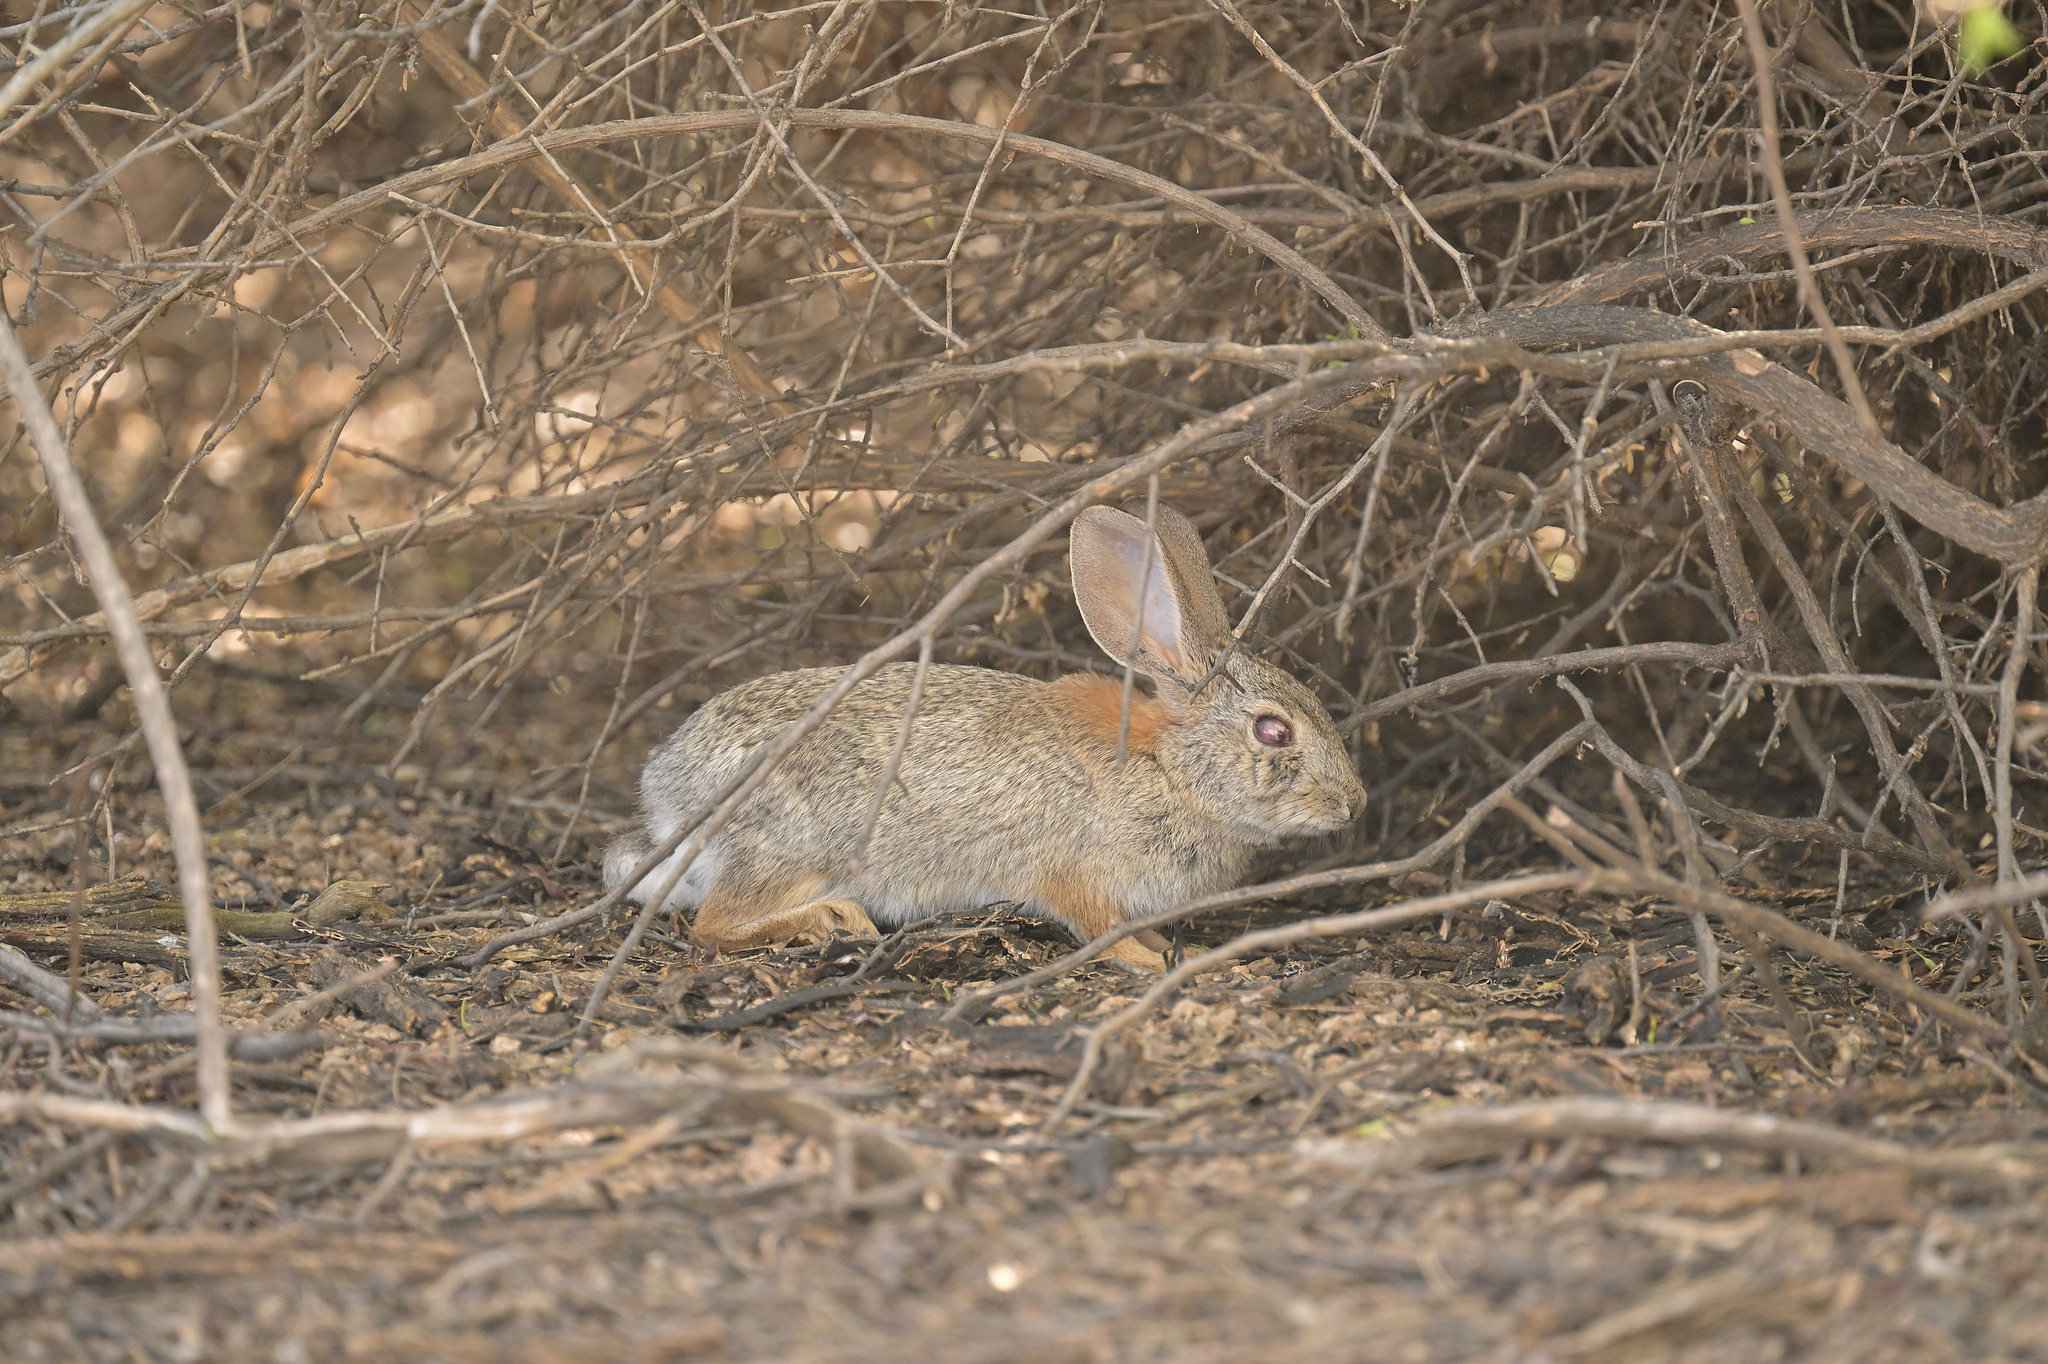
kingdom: Animalia
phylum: Chordata
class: Mammalia
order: Lagomorpha
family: Leporidae
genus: Sylvilagus
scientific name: Sylvilagus audubonii
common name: Desert cottontail
